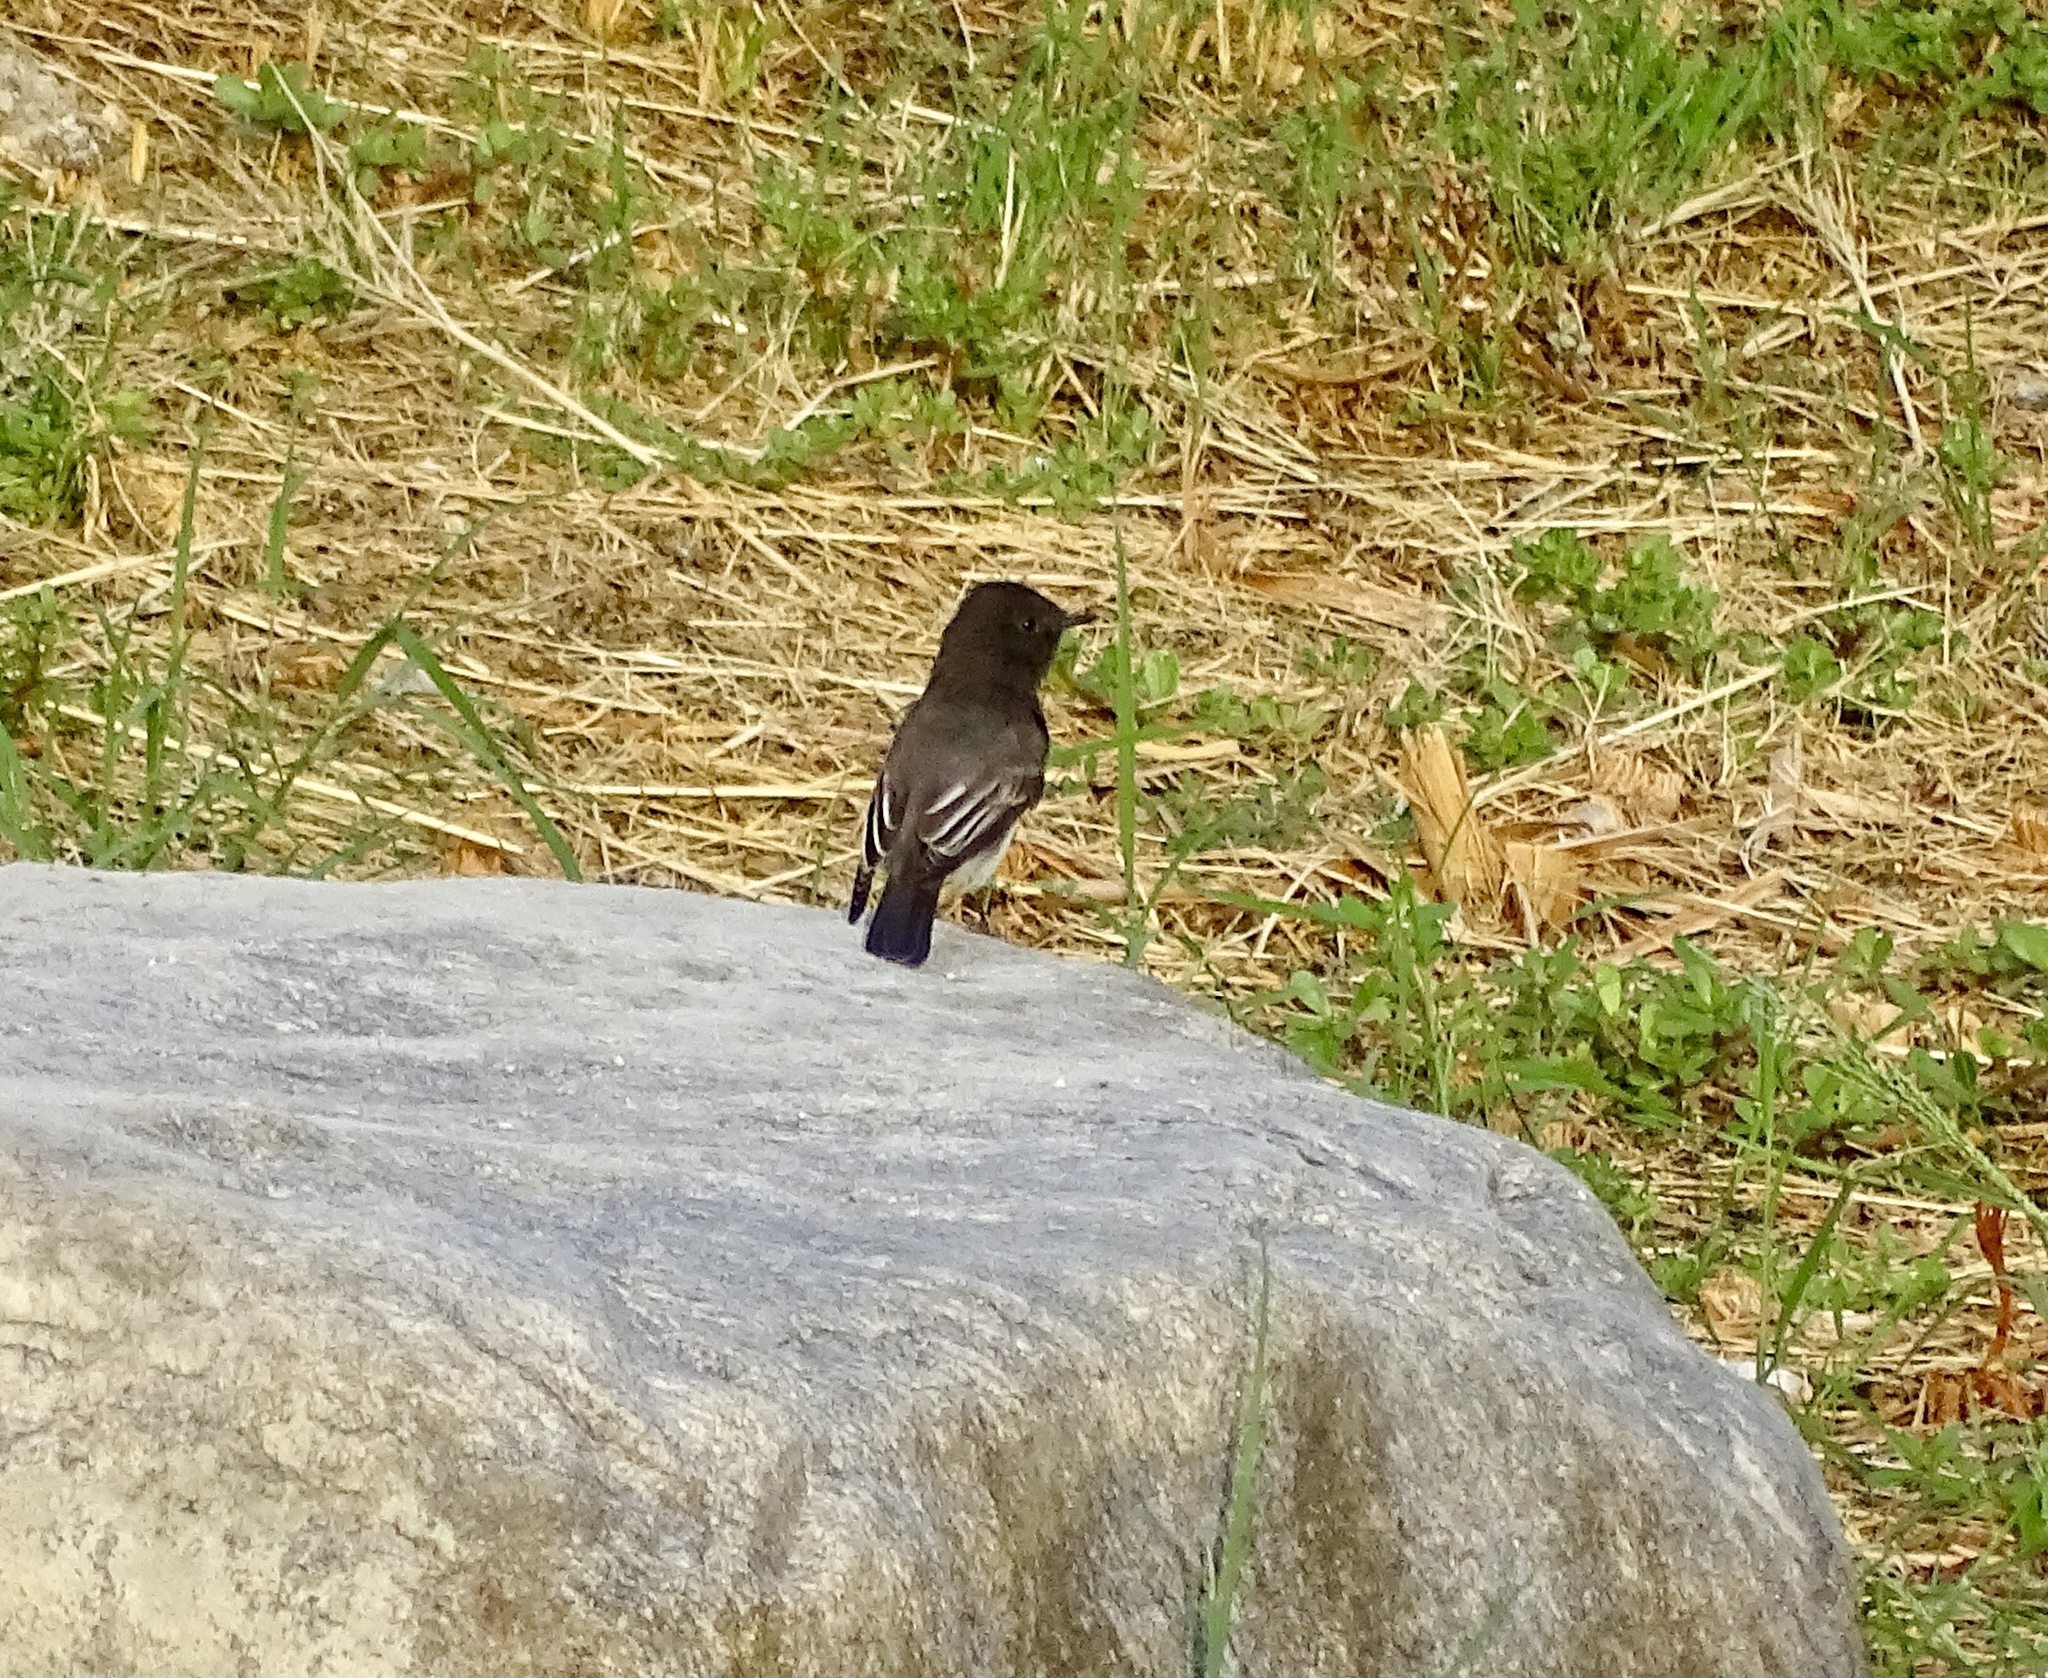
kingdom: Animalia
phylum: Chordata
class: Aves
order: Passeriformes
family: Tyrannidae
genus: Sayornis
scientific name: Sayornis nigricans
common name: Black phoebe
